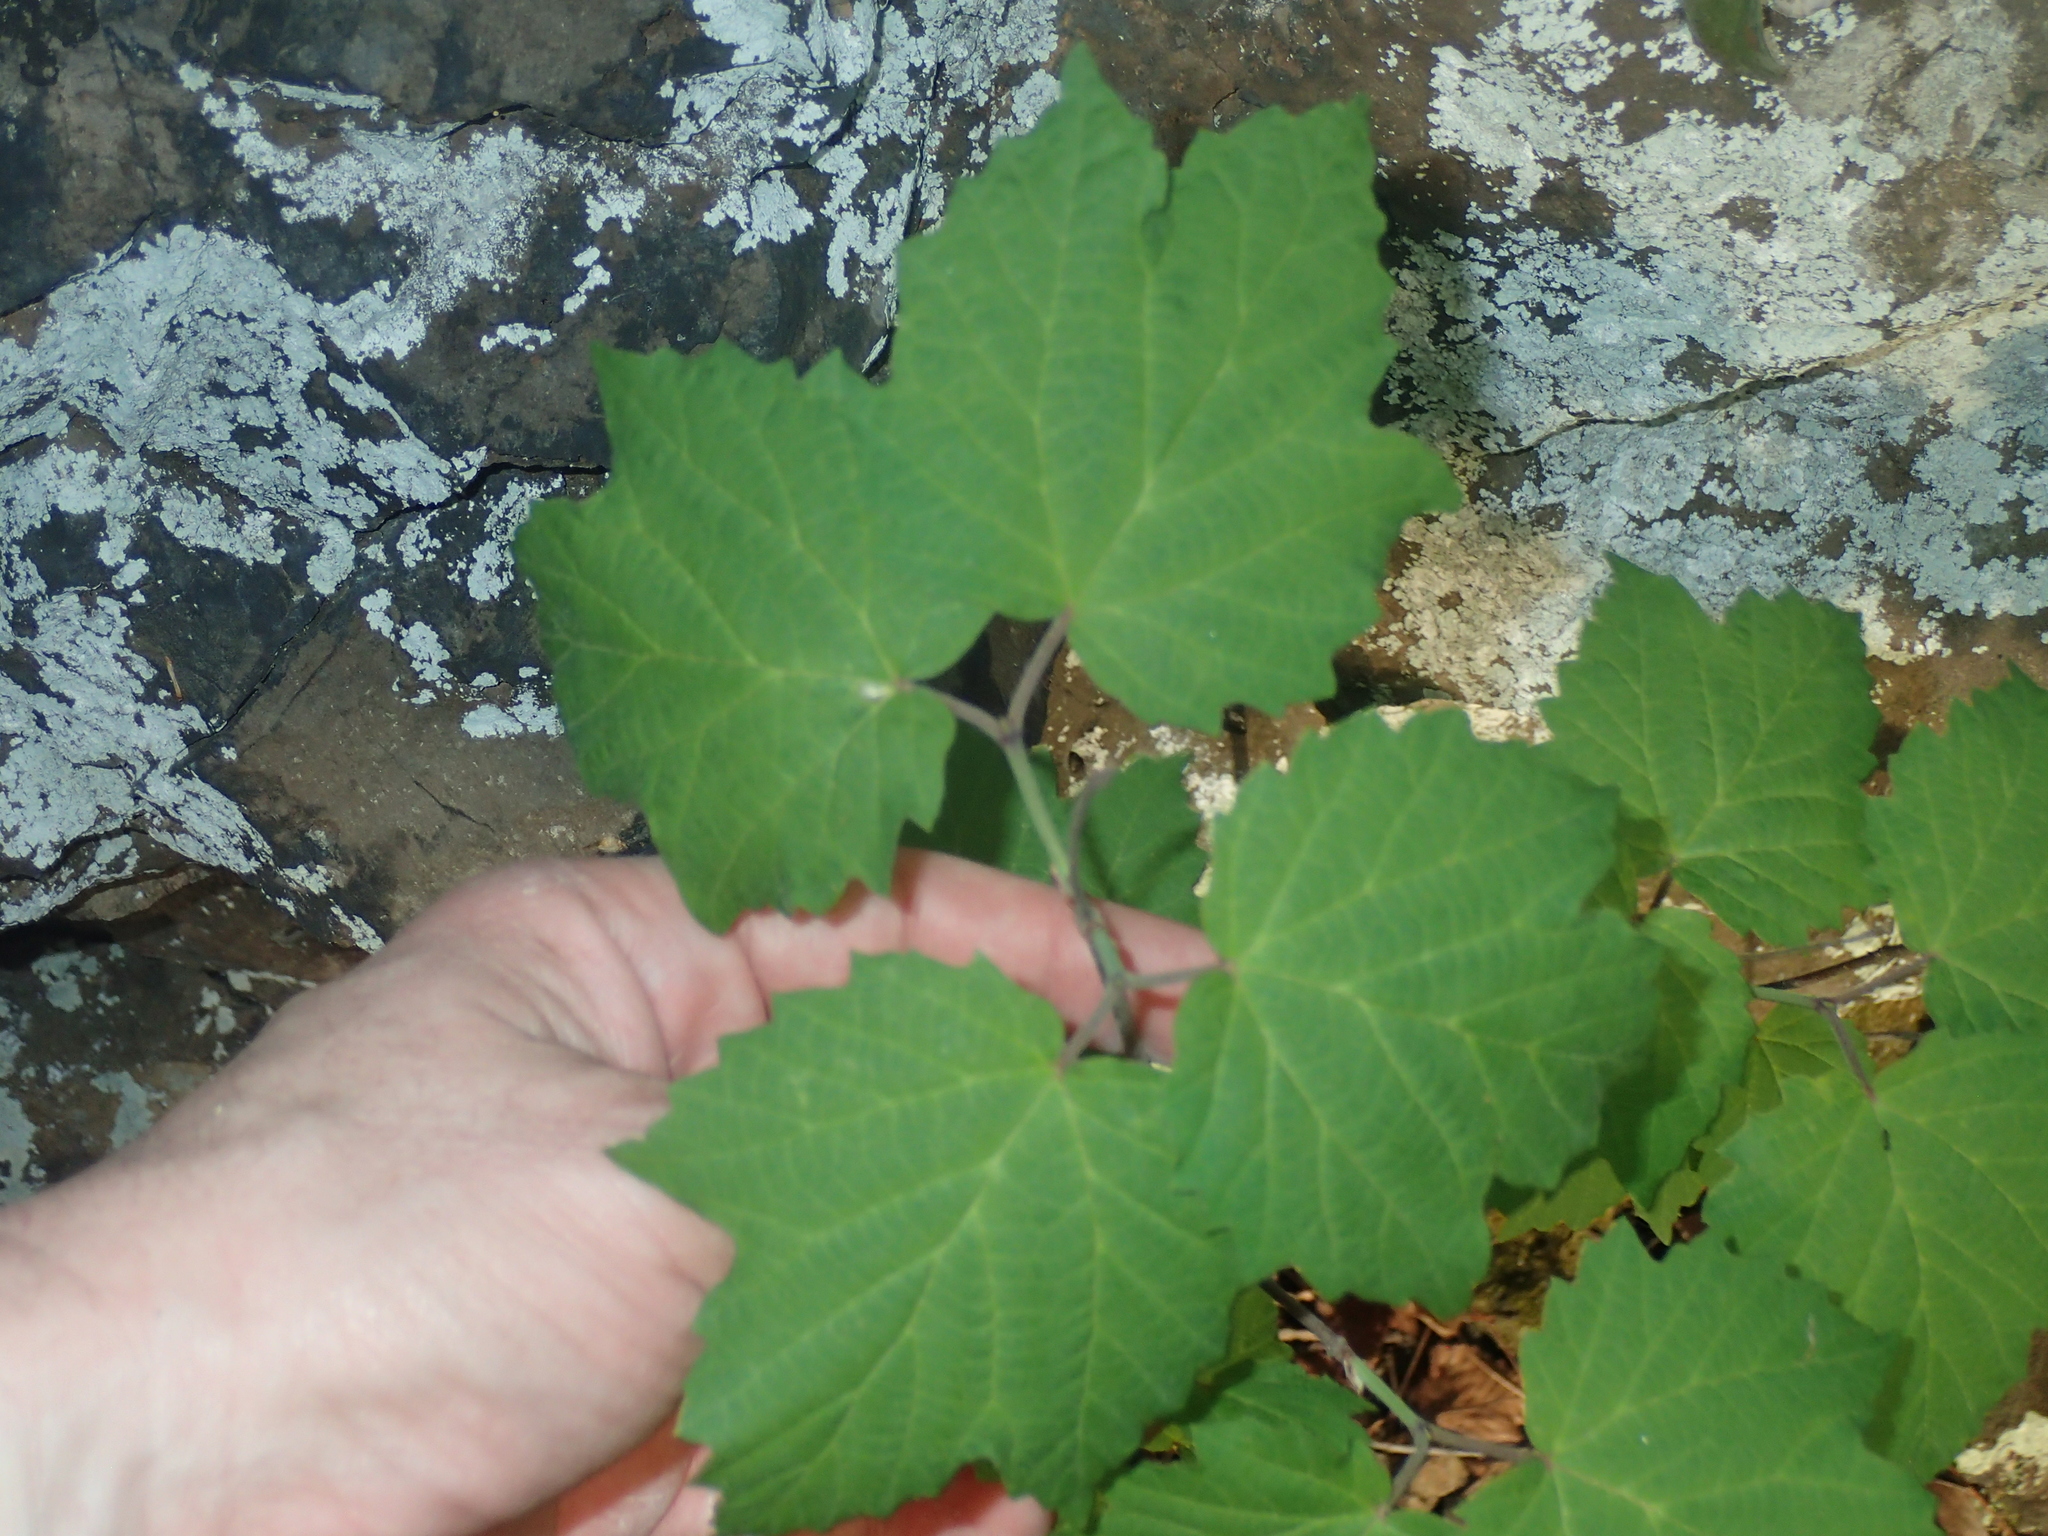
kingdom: Plantae
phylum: Tracheophyta
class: Magnoliopsida
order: Dipsacales
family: Viburnaceae
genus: Viburnum
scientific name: Viburnum acerifolium
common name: Dockmackie
